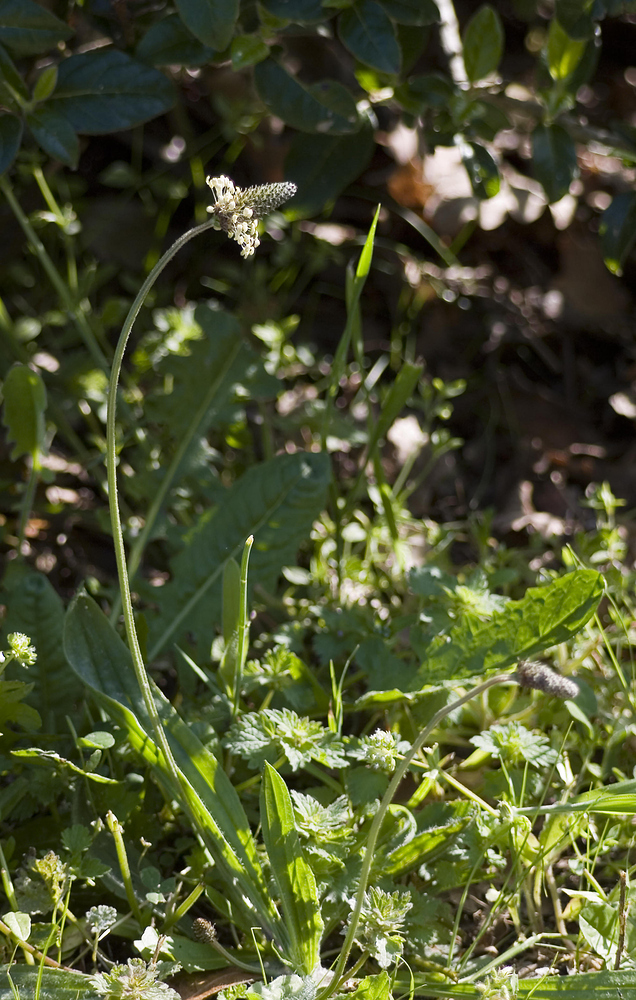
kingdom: Plantae
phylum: Tracheophyta
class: Magnoliopsida
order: Lamiales
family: Plantaginaceae
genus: Plantago
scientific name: Plantago lanceolata
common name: Ribwort plantain
